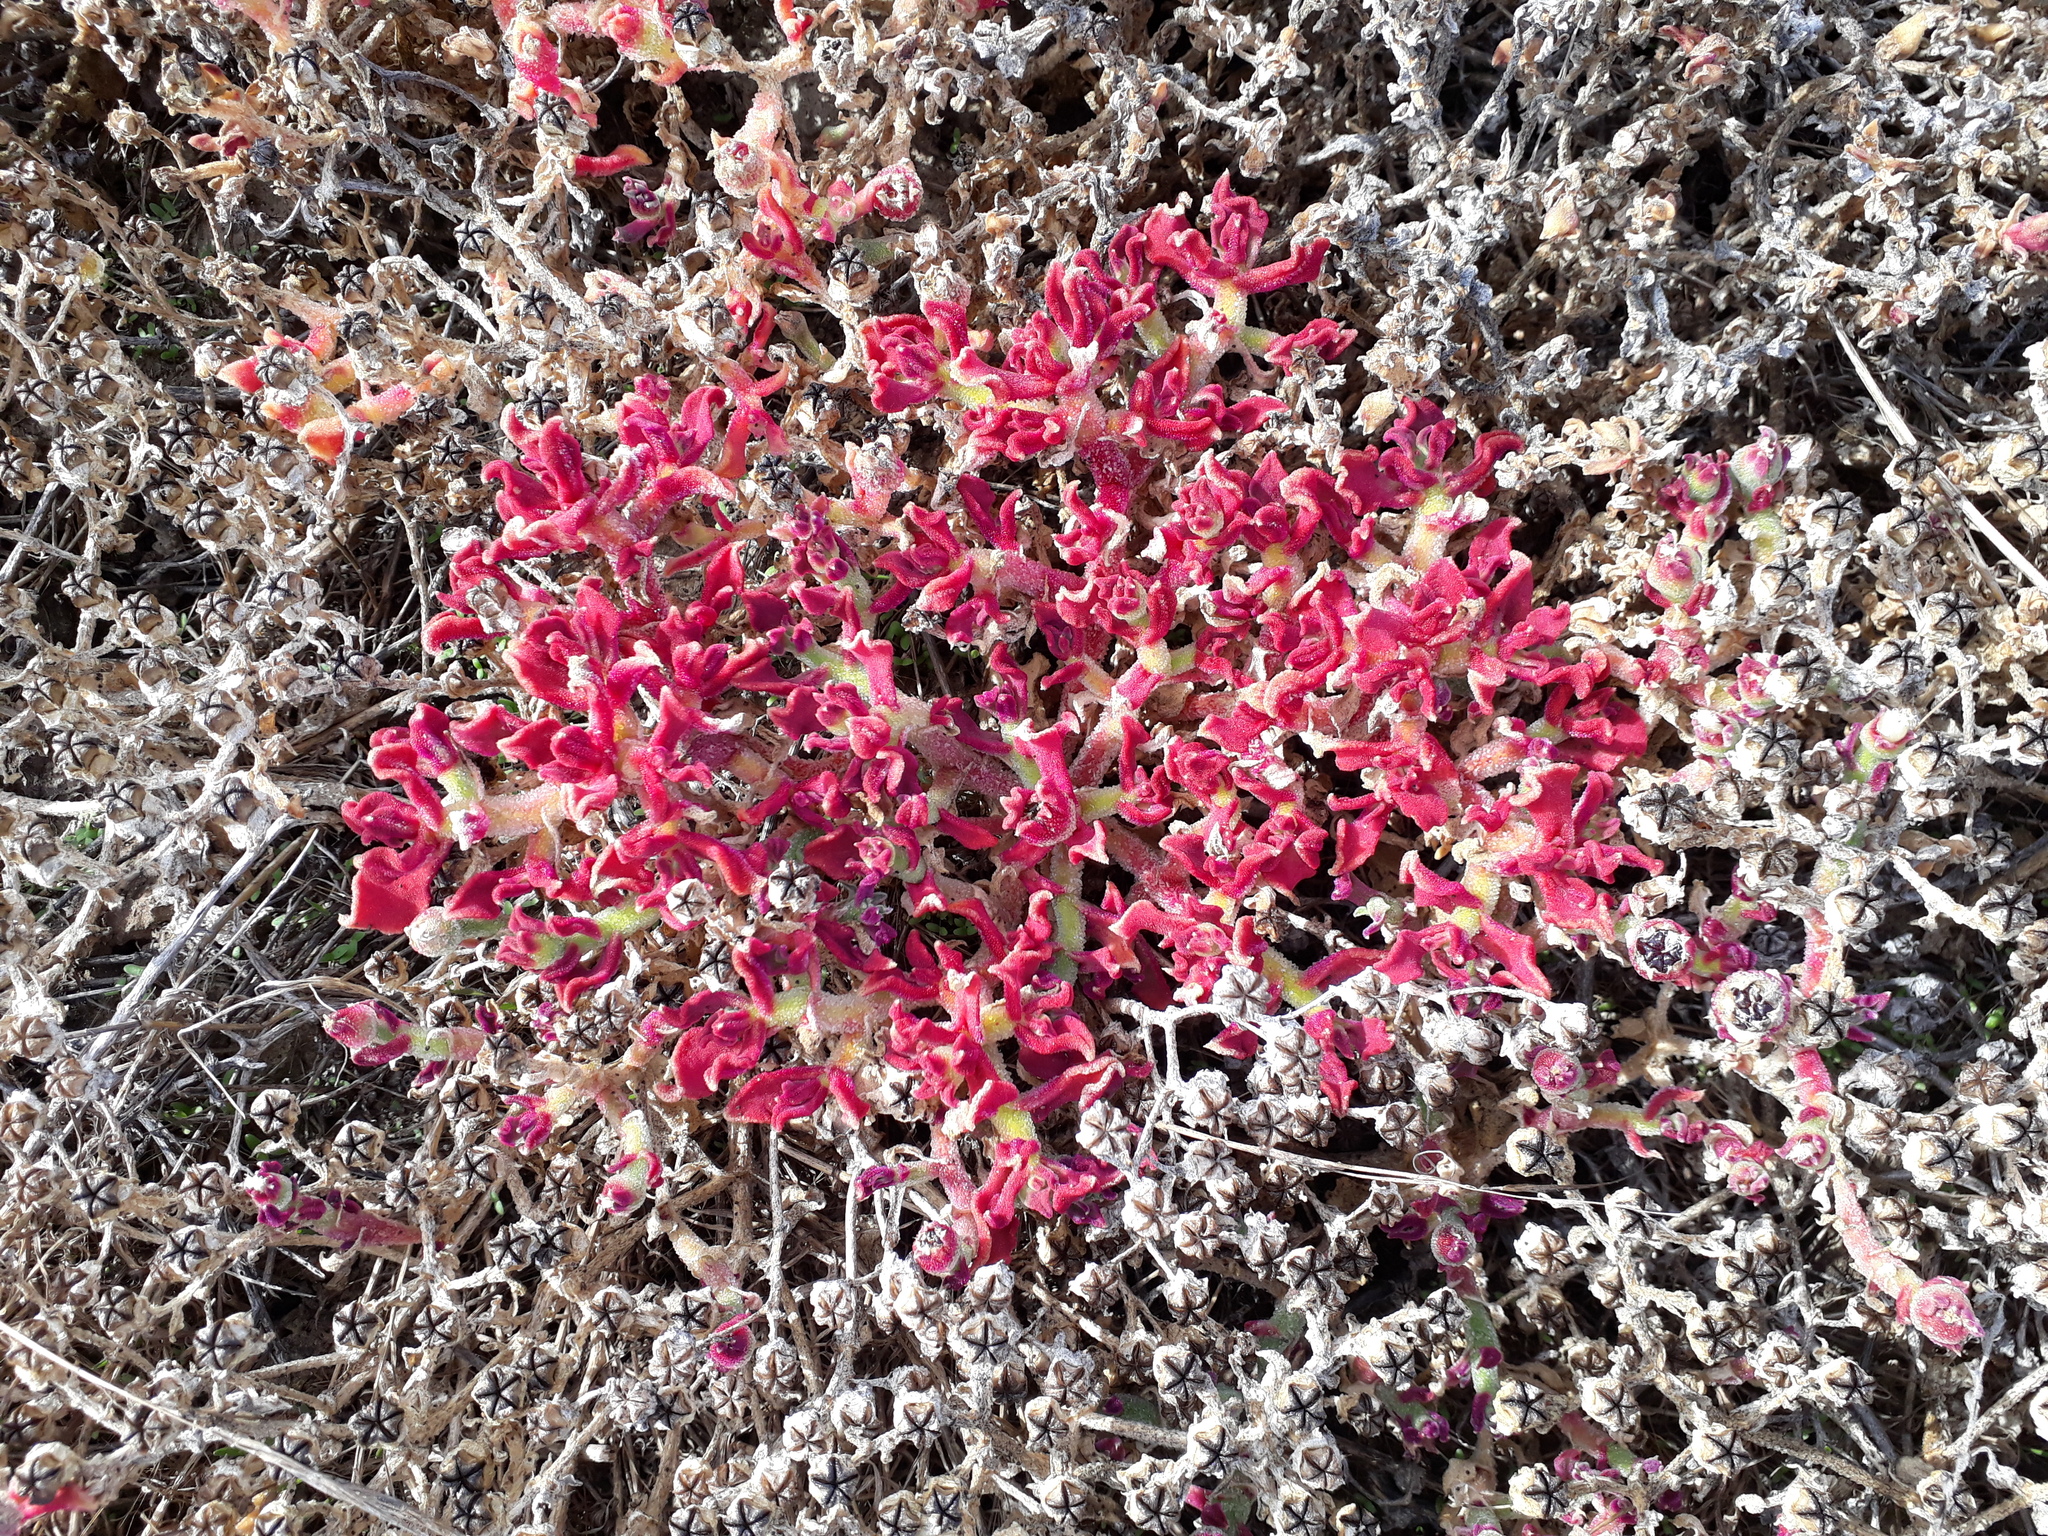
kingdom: Plantae
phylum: Tracheophyta
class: Magnoliopsida
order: Caryophyllales
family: Aizoaceae
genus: Mesembryanthemum
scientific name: Mesembryanthemum crystallinum
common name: Common iceplant
